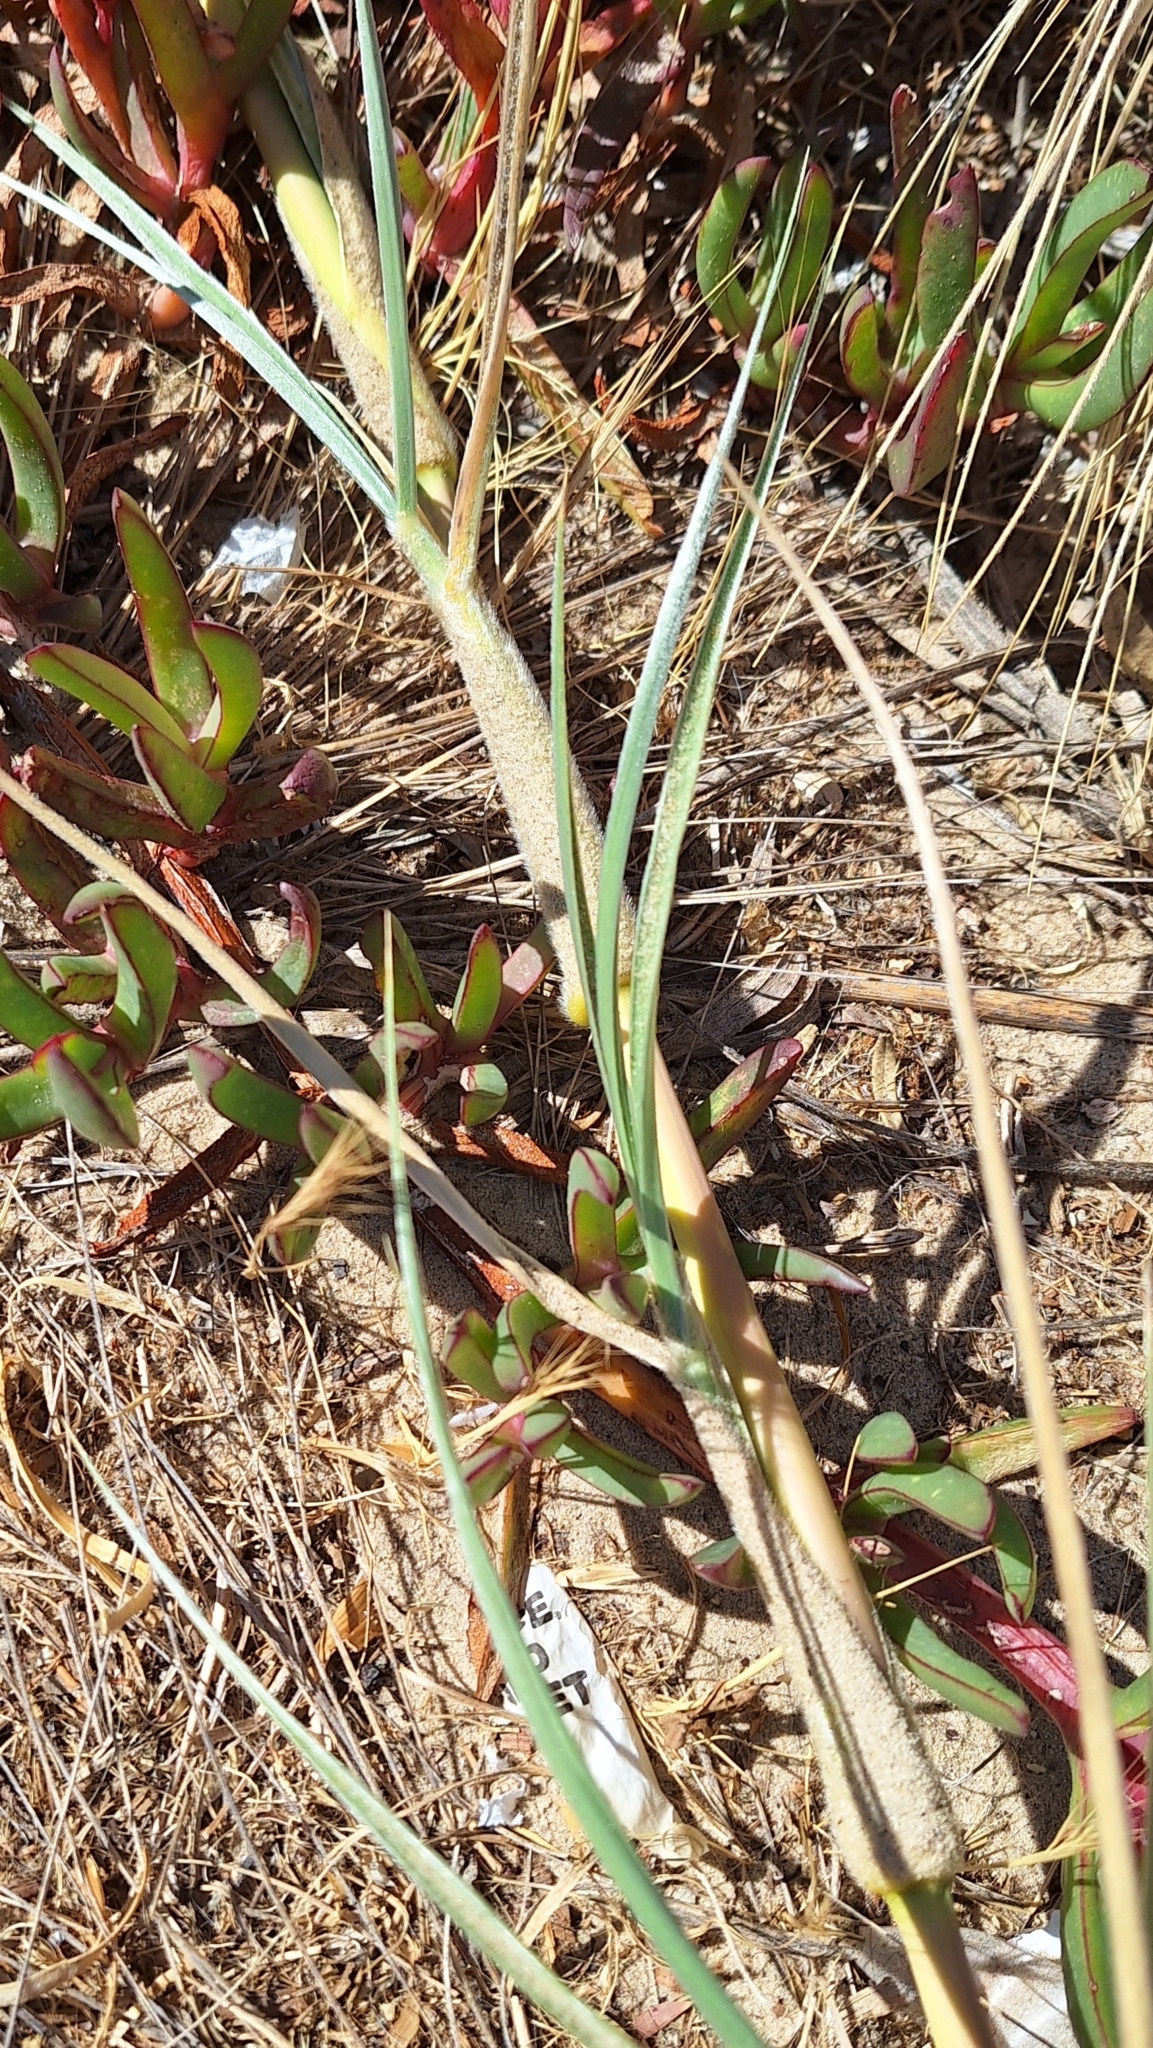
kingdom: Plantae
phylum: Tracheophyta
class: Liliopsida
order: Poales
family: Poaceae
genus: Spinifex
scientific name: Spinifex hirsutus
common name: Hairy spinifex
